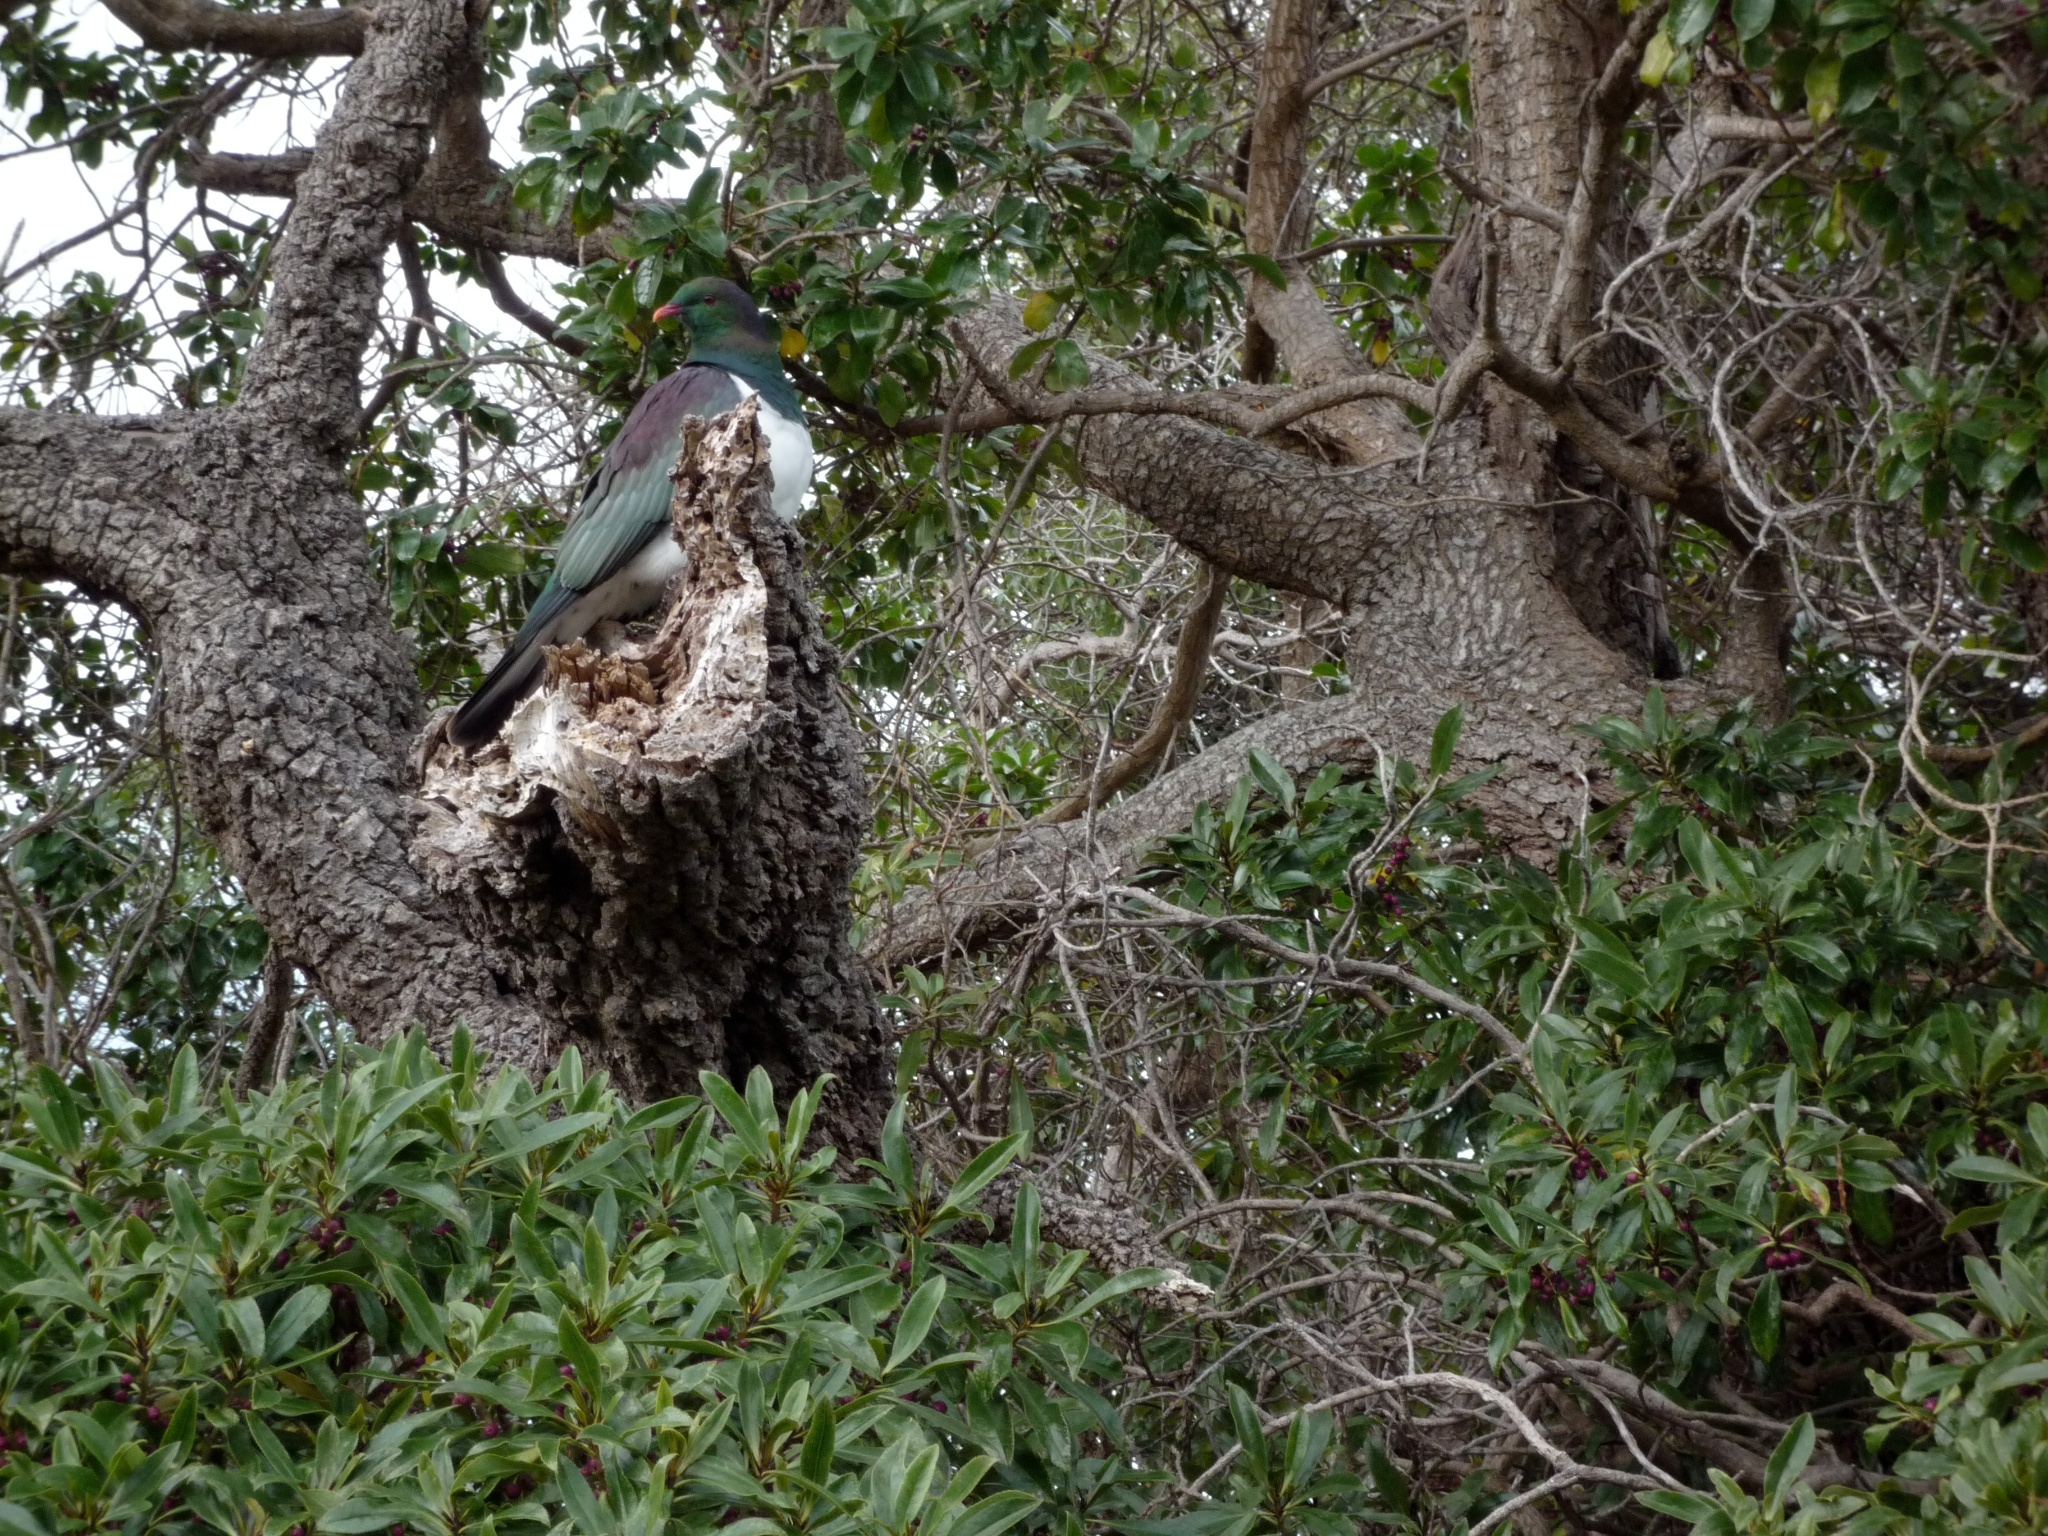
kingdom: Plantae
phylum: Tracheophyta
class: Magnoliopsida
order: Lamiales
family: Scrophulariaceae
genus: Myoporum
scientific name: Myoporum laetum
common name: Ngaio tree
